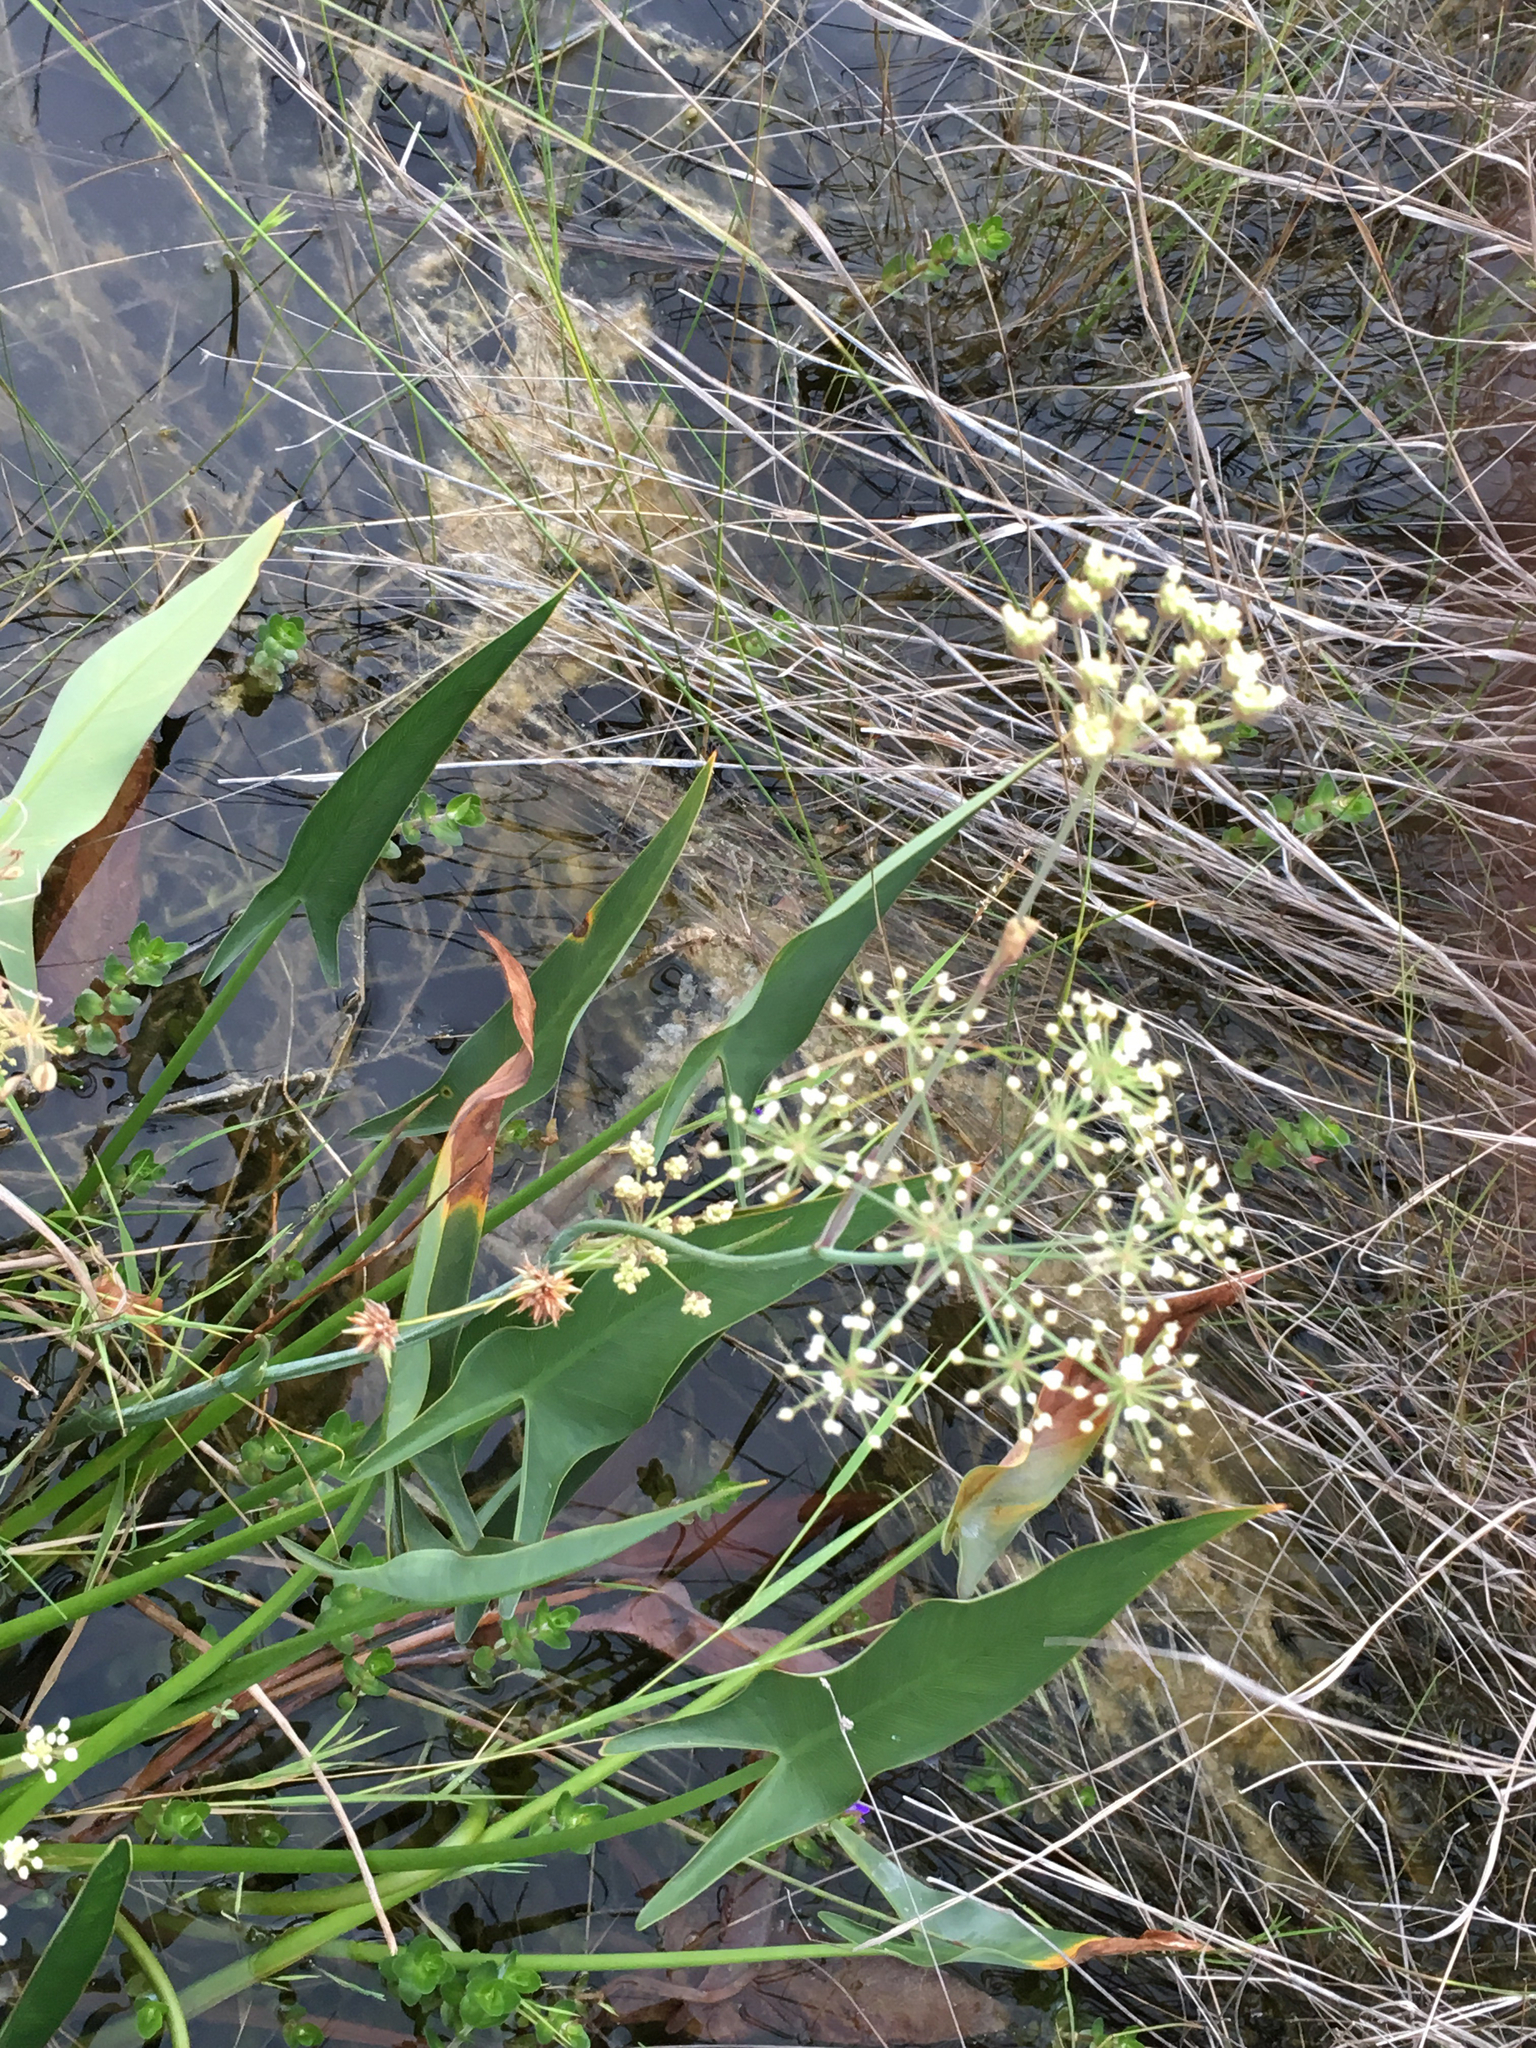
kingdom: Plantae
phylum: Tracheophyta
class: Magnoliopsida
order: Apiales
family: Apiaceae
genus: Tiedemannia
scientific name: Tiedemannia filiformis
